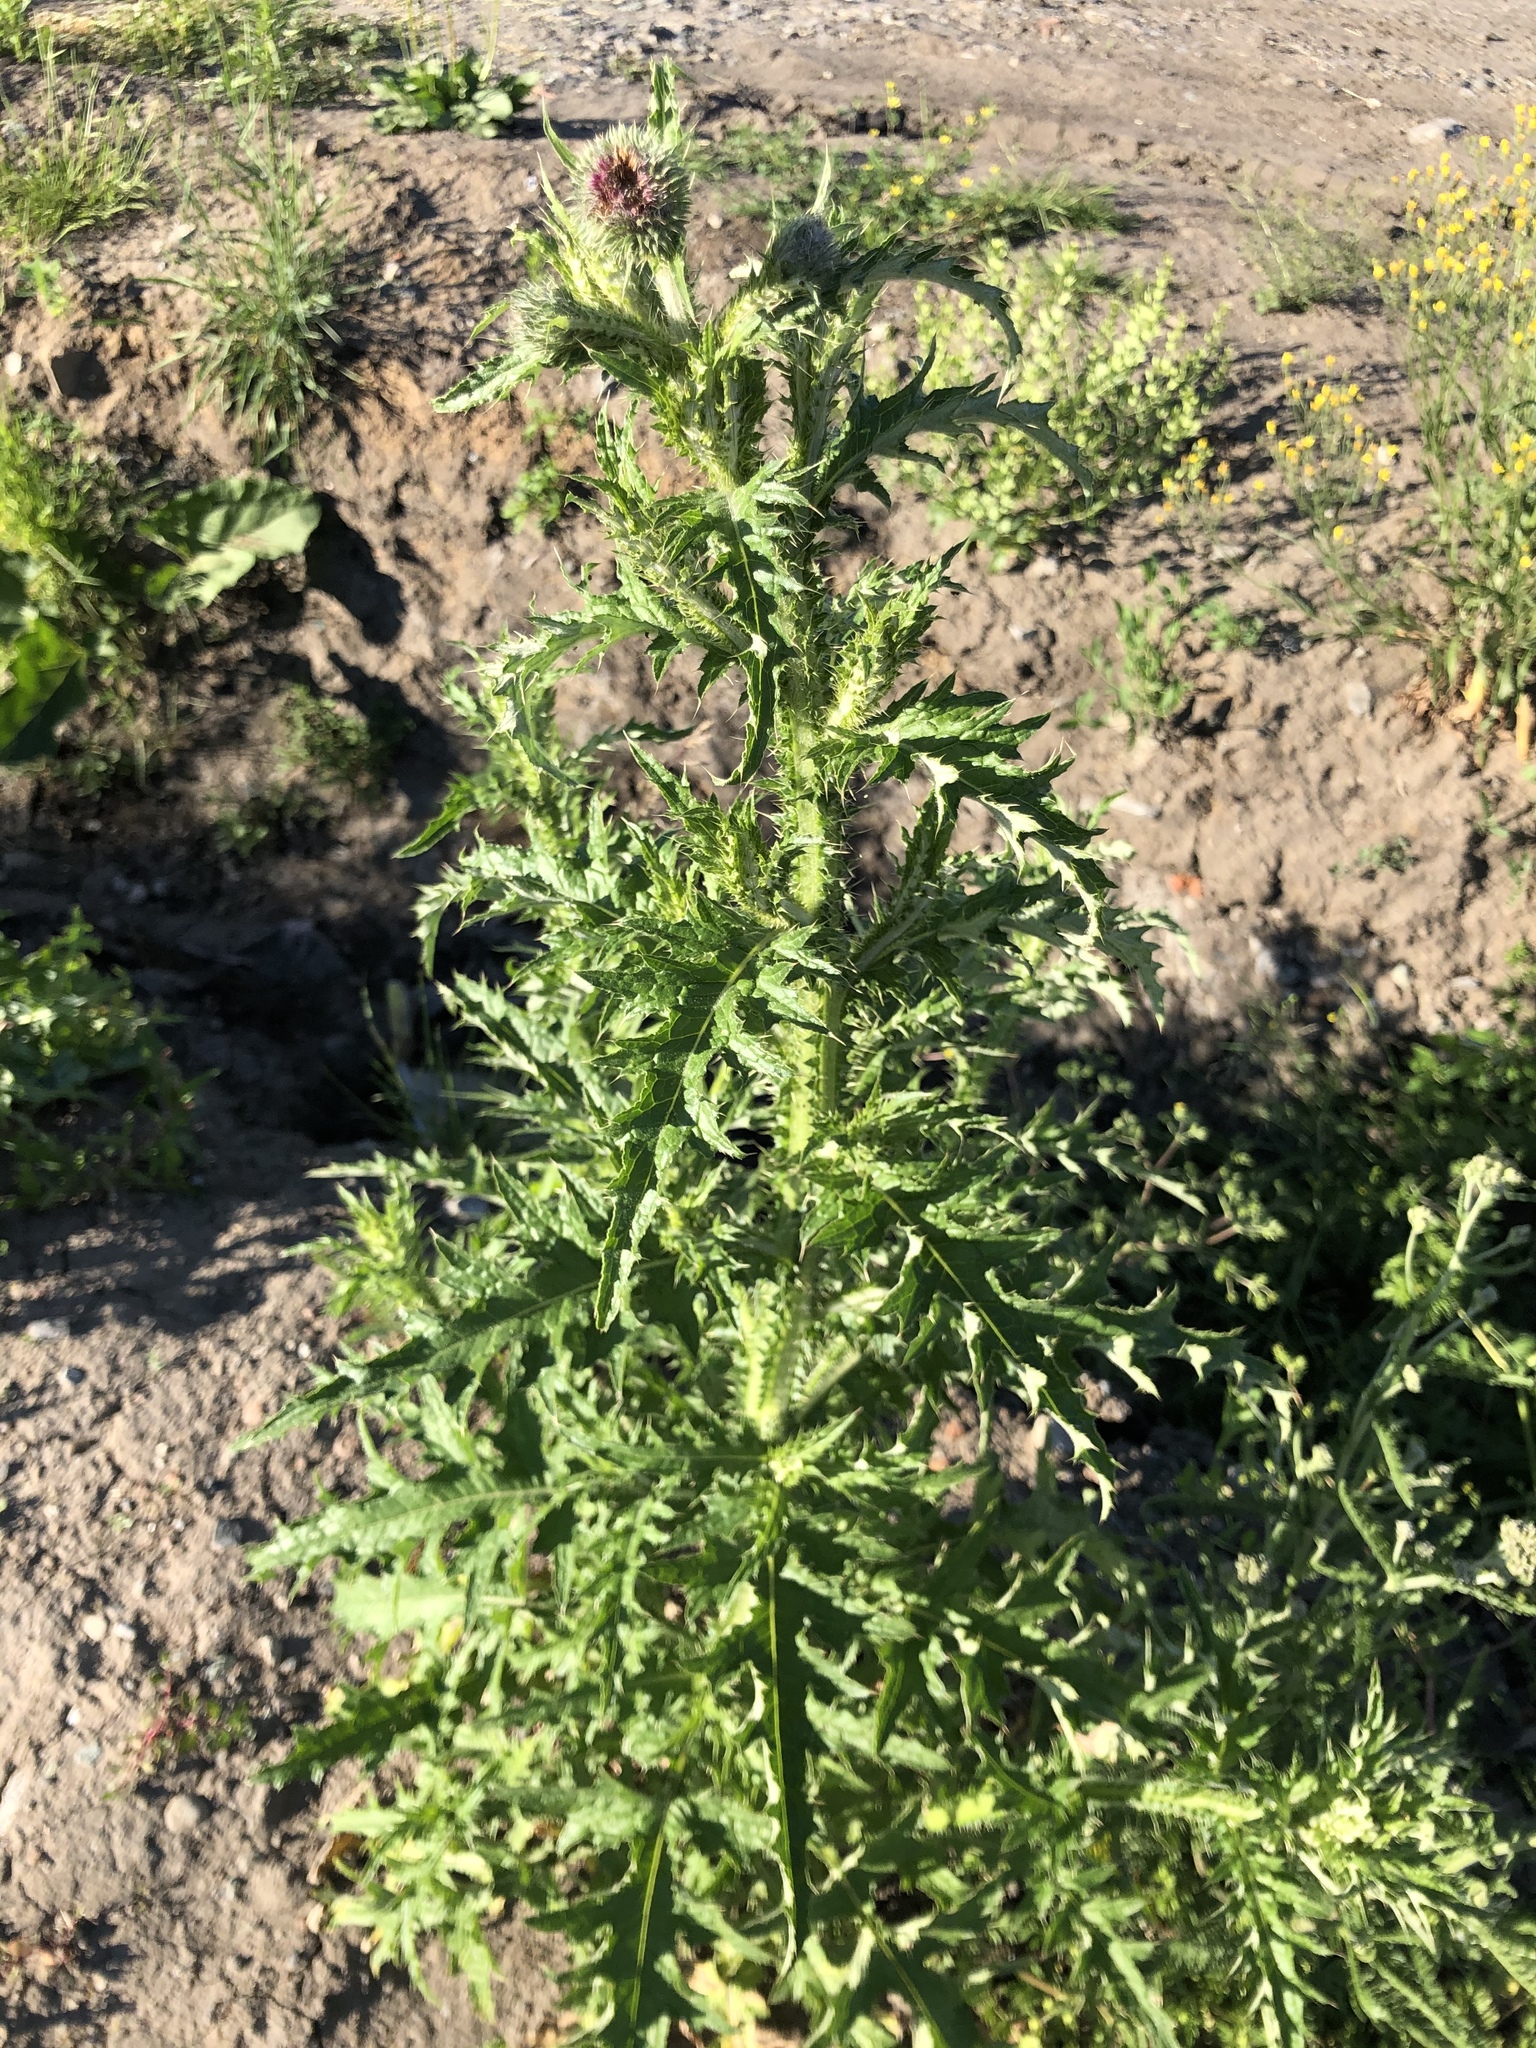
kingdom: Plantae
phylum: Tracheophyta
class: Magnoliopsida
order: Asterales
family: Asteraceae
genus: Carduus
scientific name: Carduus crispus
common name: Welted thistle
